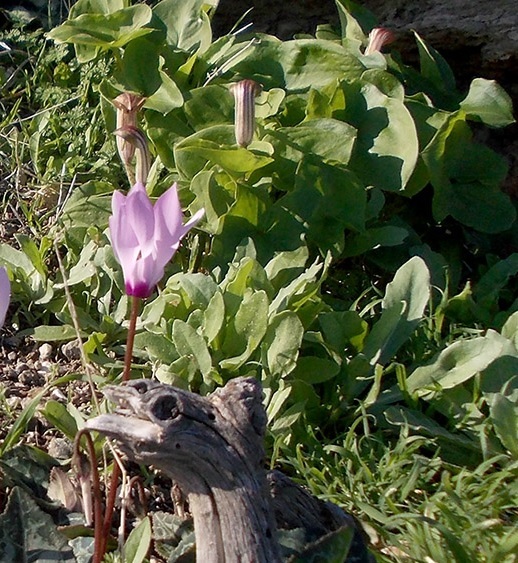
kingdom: Plantae
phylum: Tracheophyta
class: Liliopsida
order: Alismatales
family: Araceae
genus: Arisarum
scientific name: Arisarum vulgare
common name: Common arisarum
